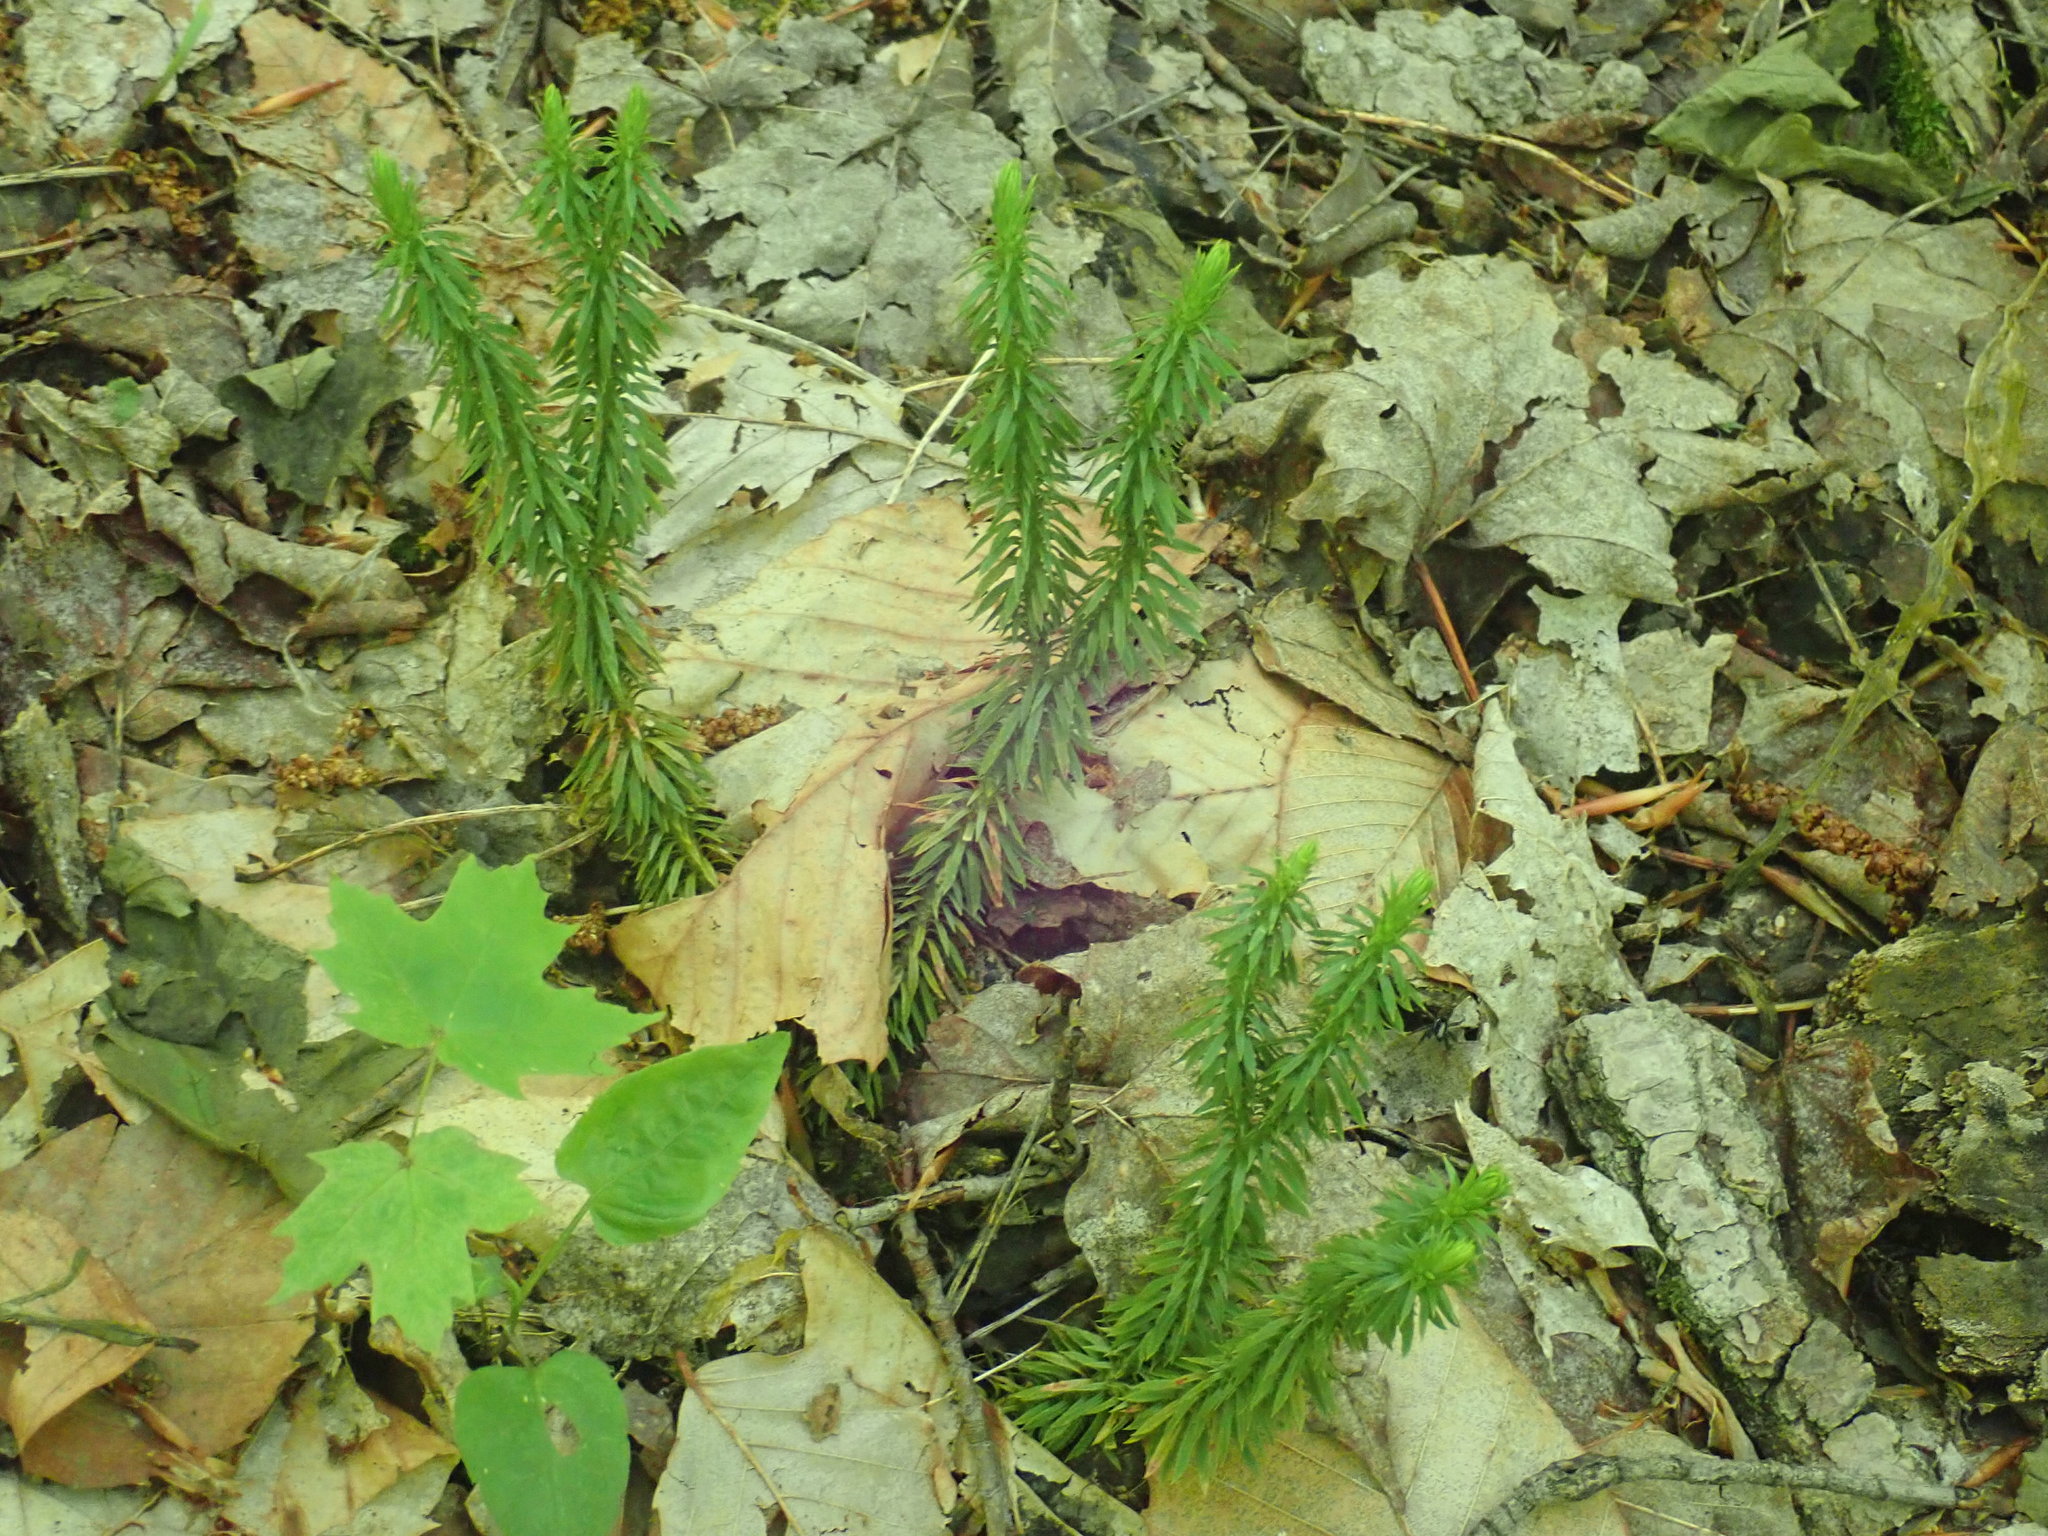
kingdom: Plantae
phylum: Tracheophyta
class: Lycopodiopsida
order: Lycopodiales
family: Lycopodiaceae
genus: Huperzia
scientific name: Huperzia lucidula
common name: Shining clubmoss
